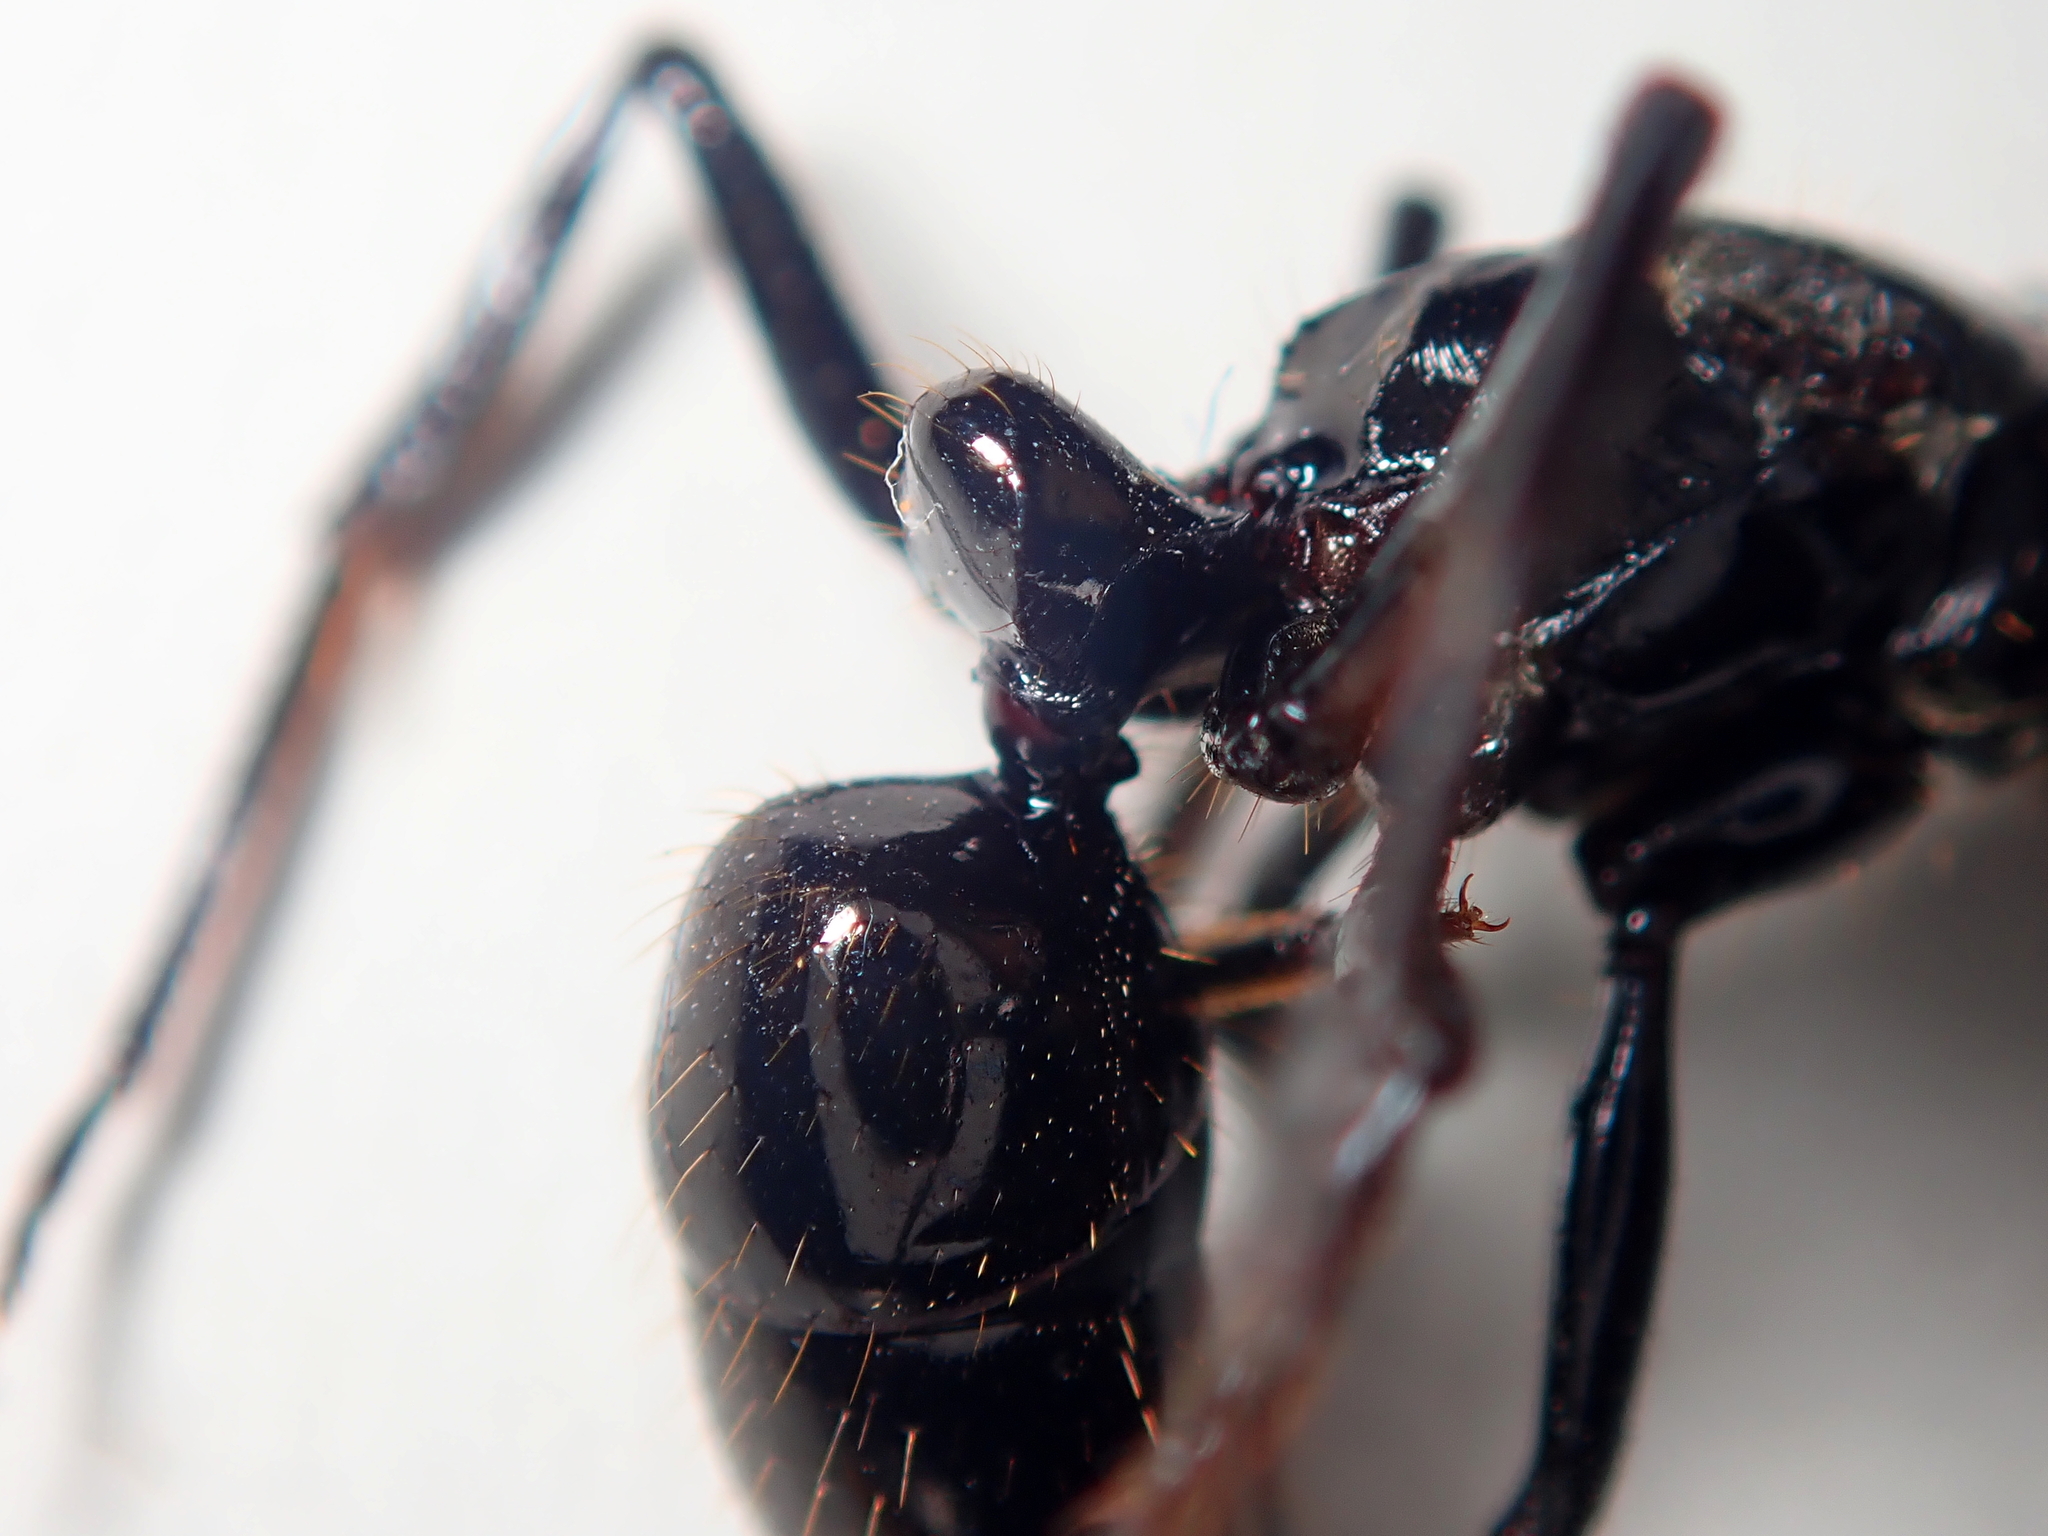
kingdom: Animalia
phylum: Arthropoda
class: Insecta
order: Hymenoptera
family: Formicidae
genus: Pachycondyla
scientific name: Pachycondyla commutata
